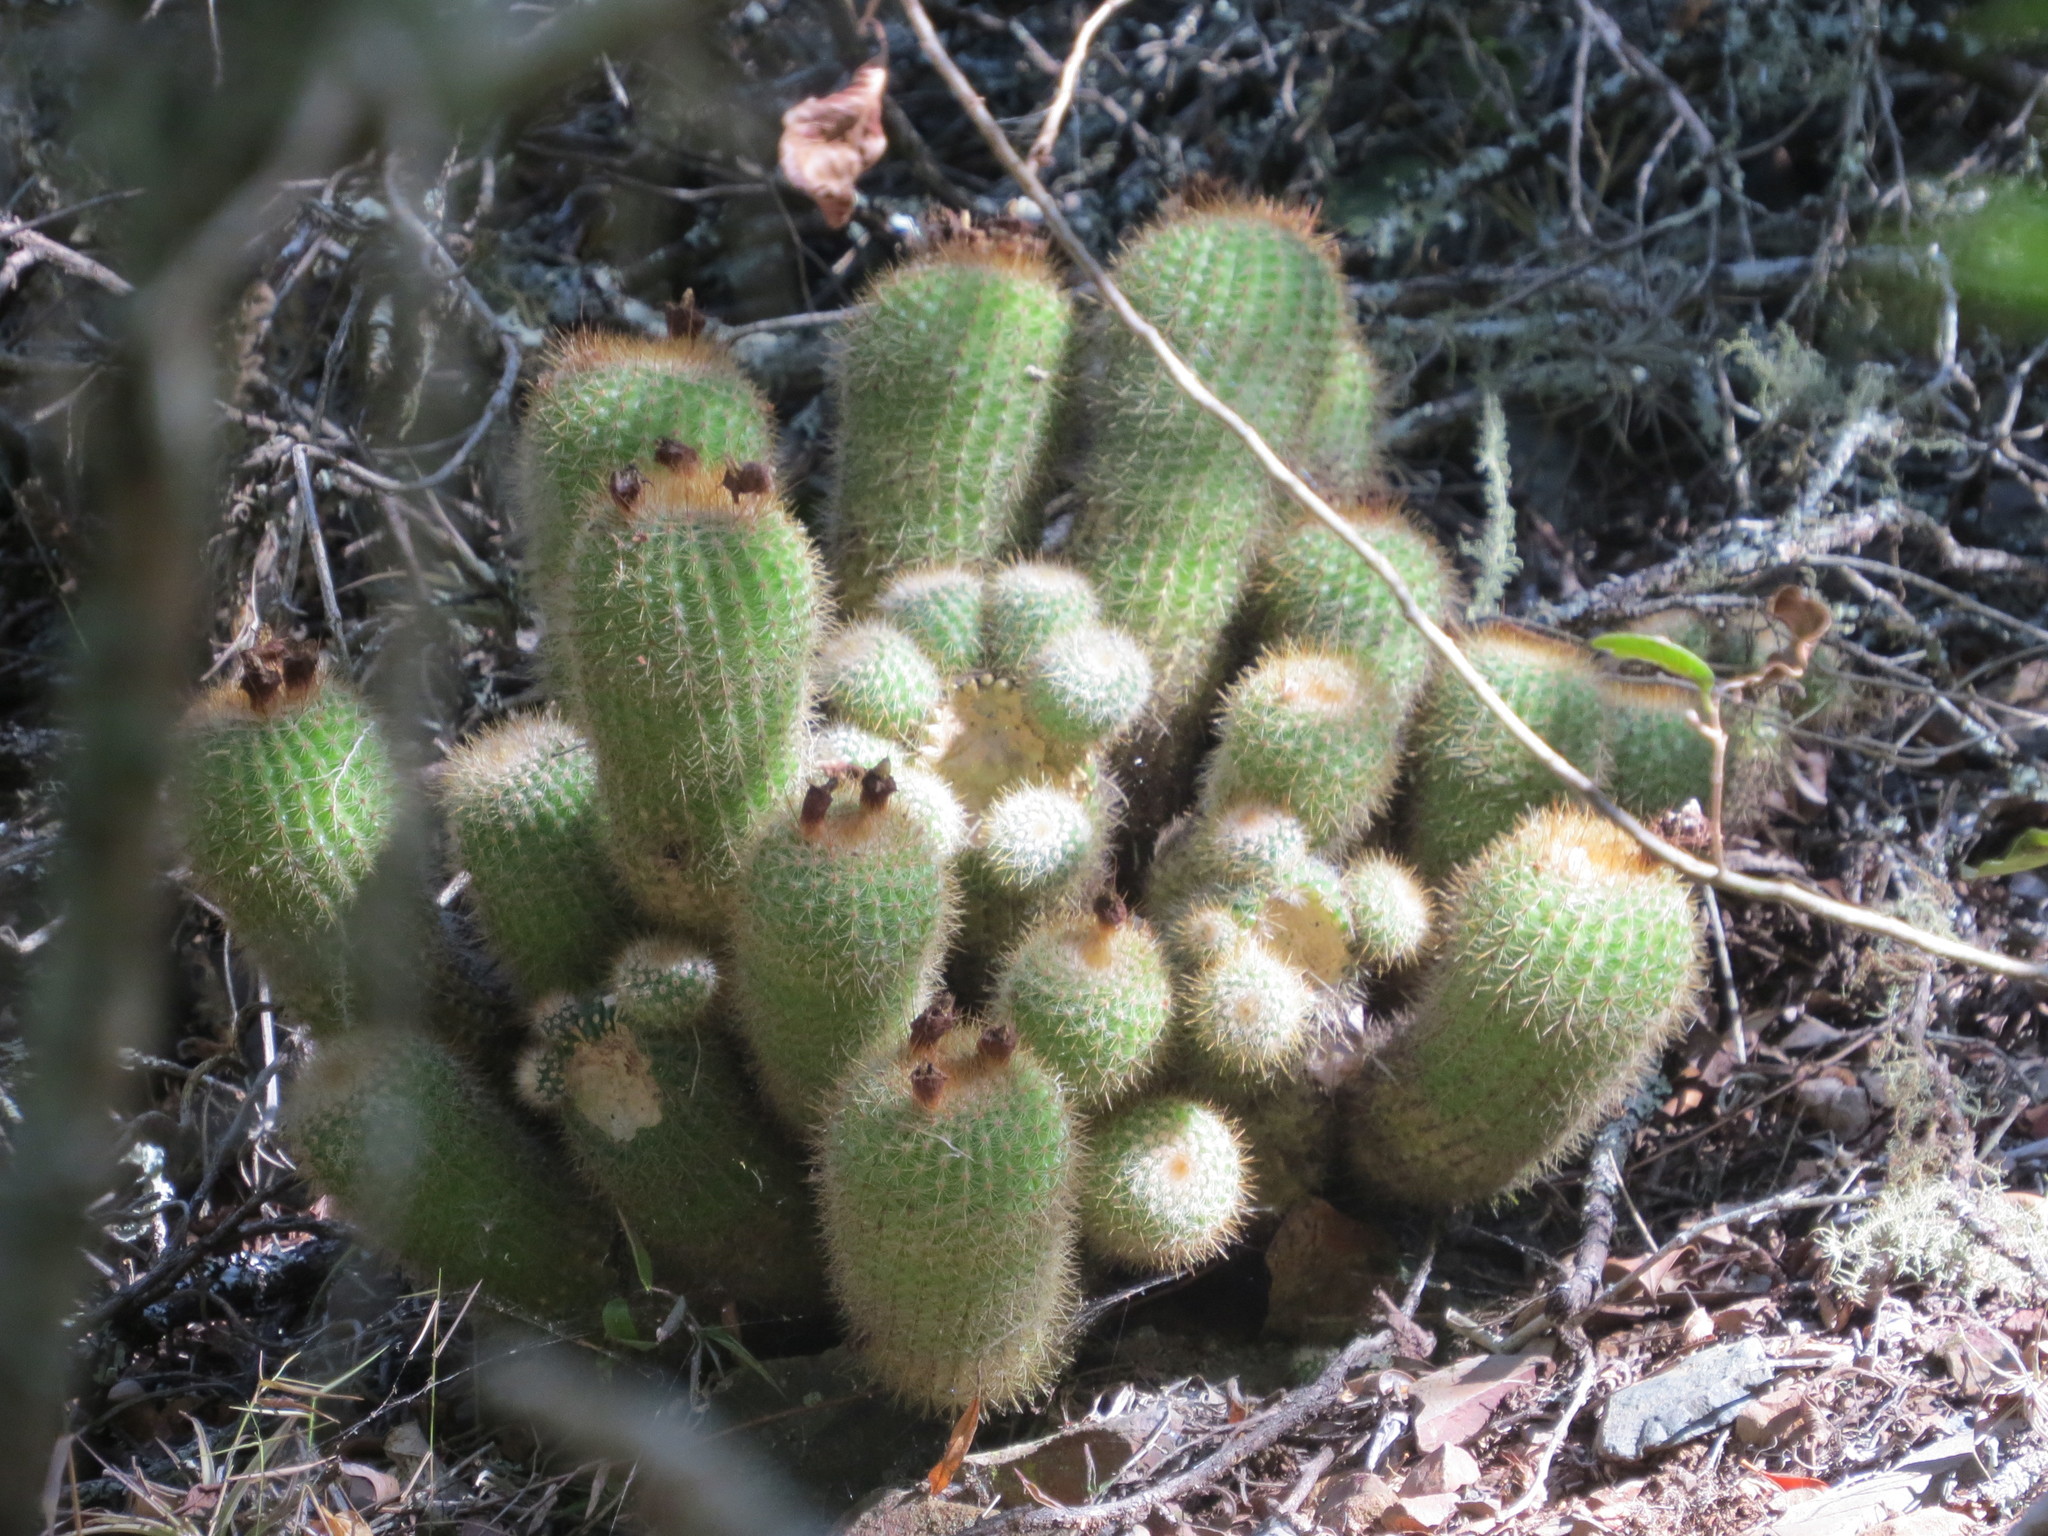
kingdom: Plantae
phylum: Tracheophyta
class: Magnoliopsida
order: Caryophyllales
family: Cactaceae
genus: Parodia
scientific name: Parodia scopa
